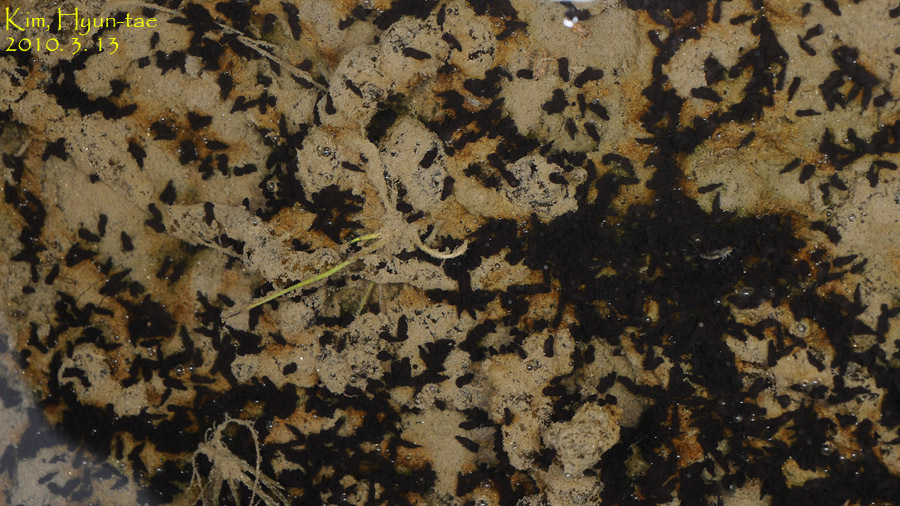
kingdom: Animalia
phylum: Chordata
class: Amphibia
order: Anura
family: Bufonidae
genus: Bufo
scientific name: Bufo gargarizans
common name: Asiatic toad
